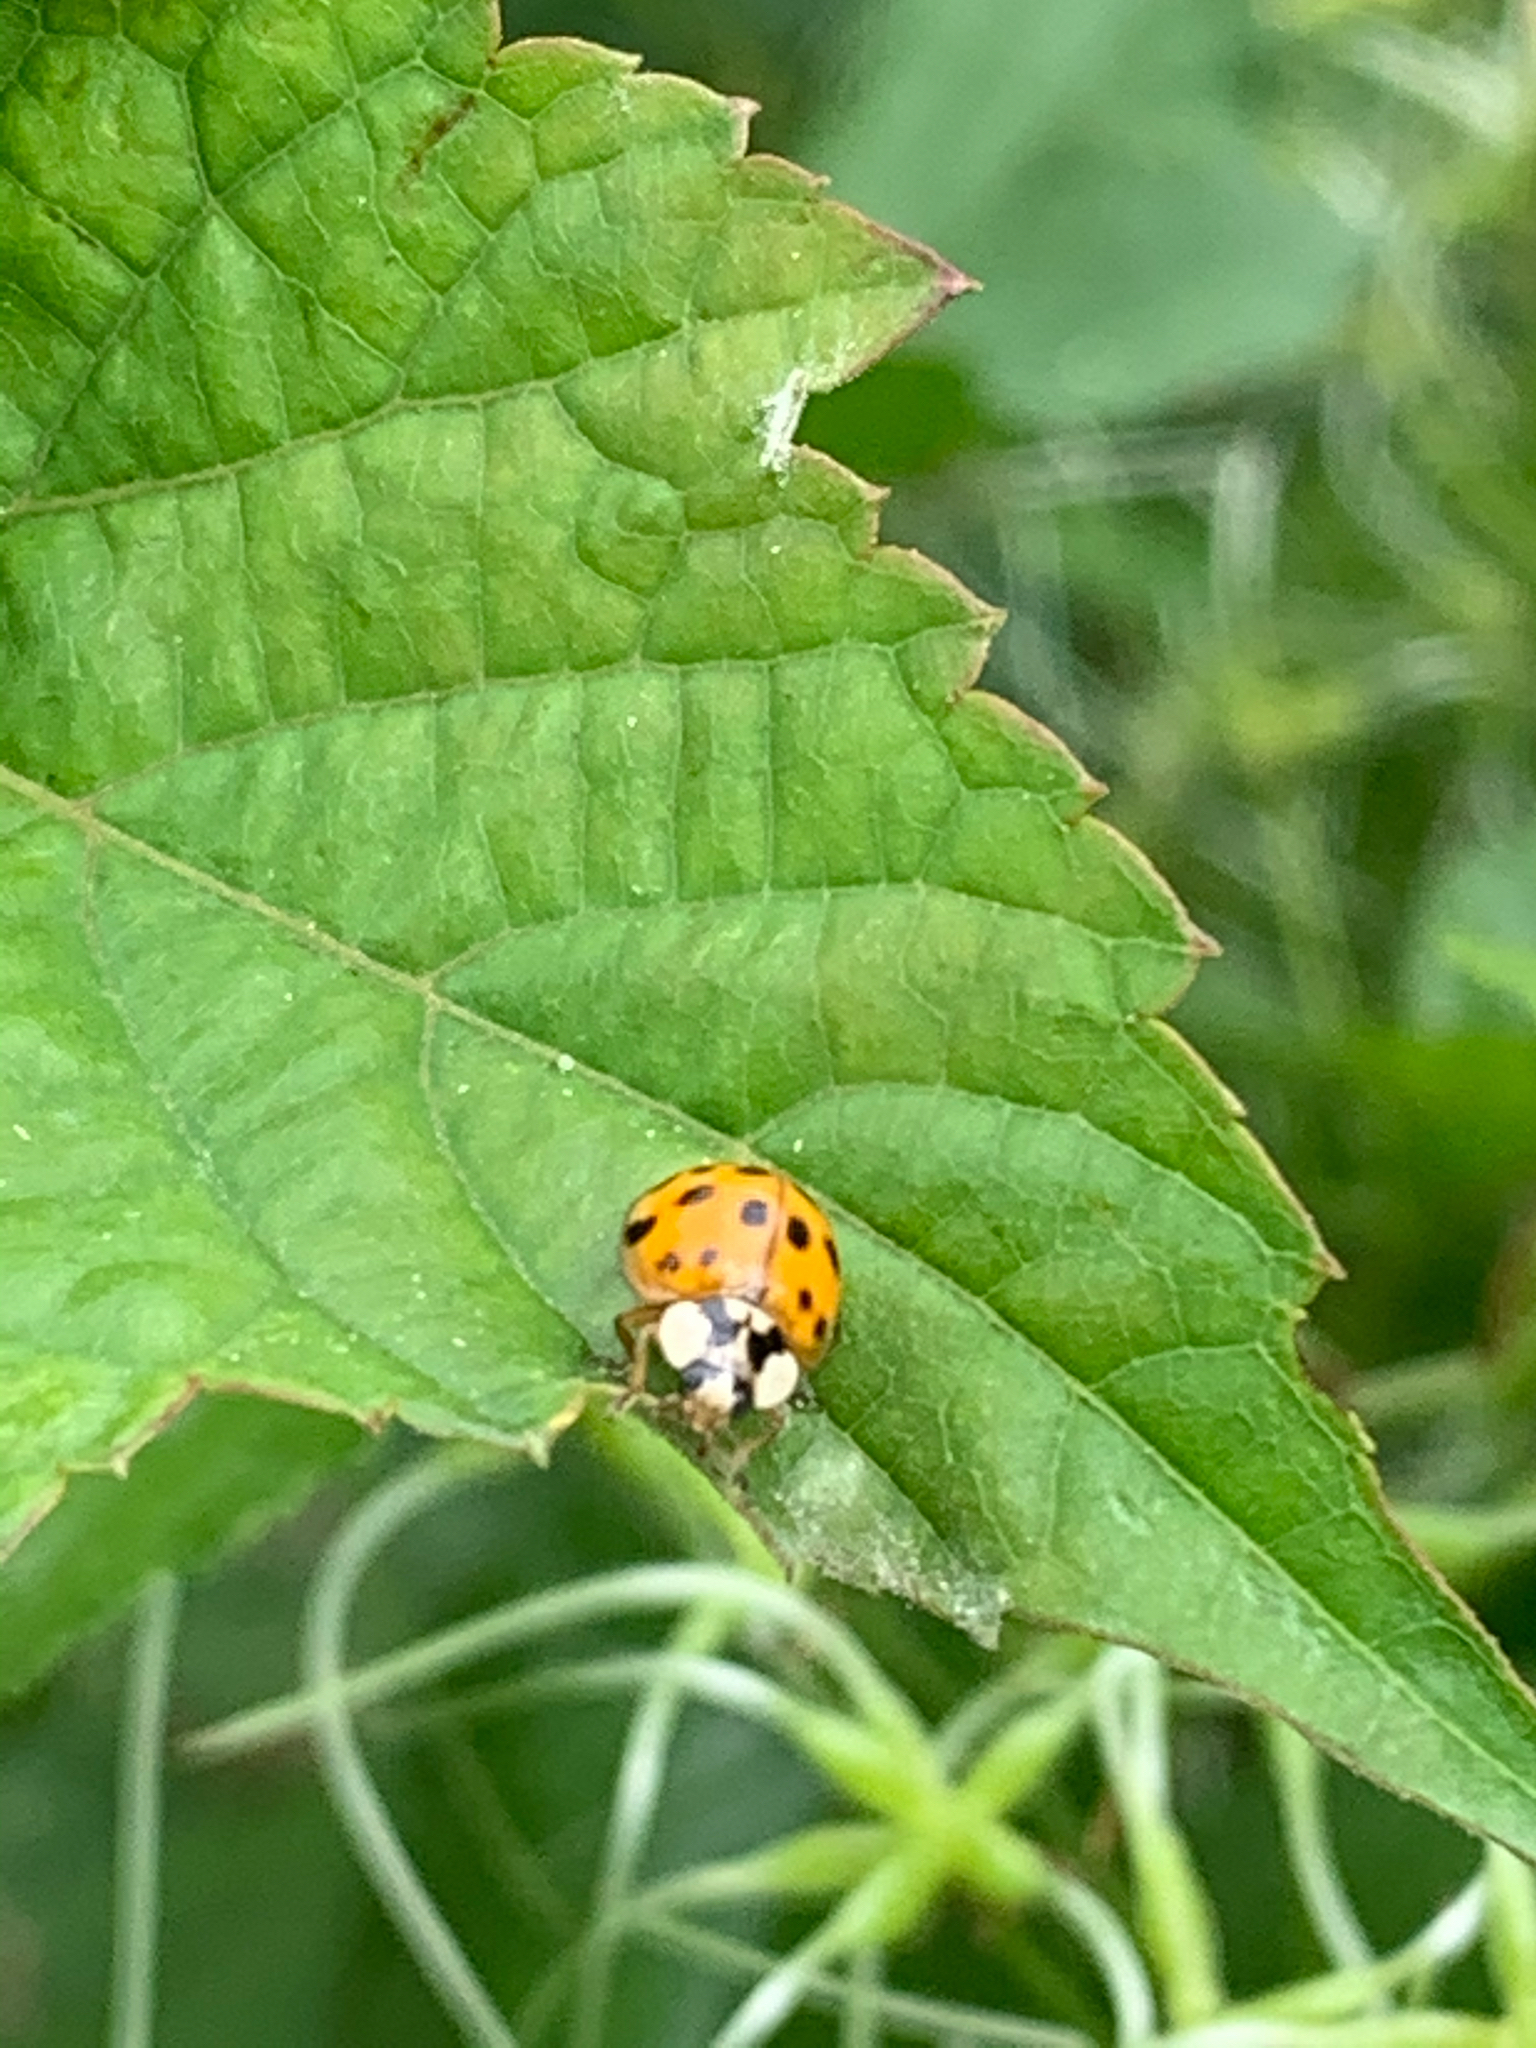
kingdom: Animalia
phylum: Arthropoda
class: Insecta
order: Coleoptera
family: Coccinellidae
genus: Harmonia
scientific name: Harmonia axyridis
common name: Harlequin ladybird
